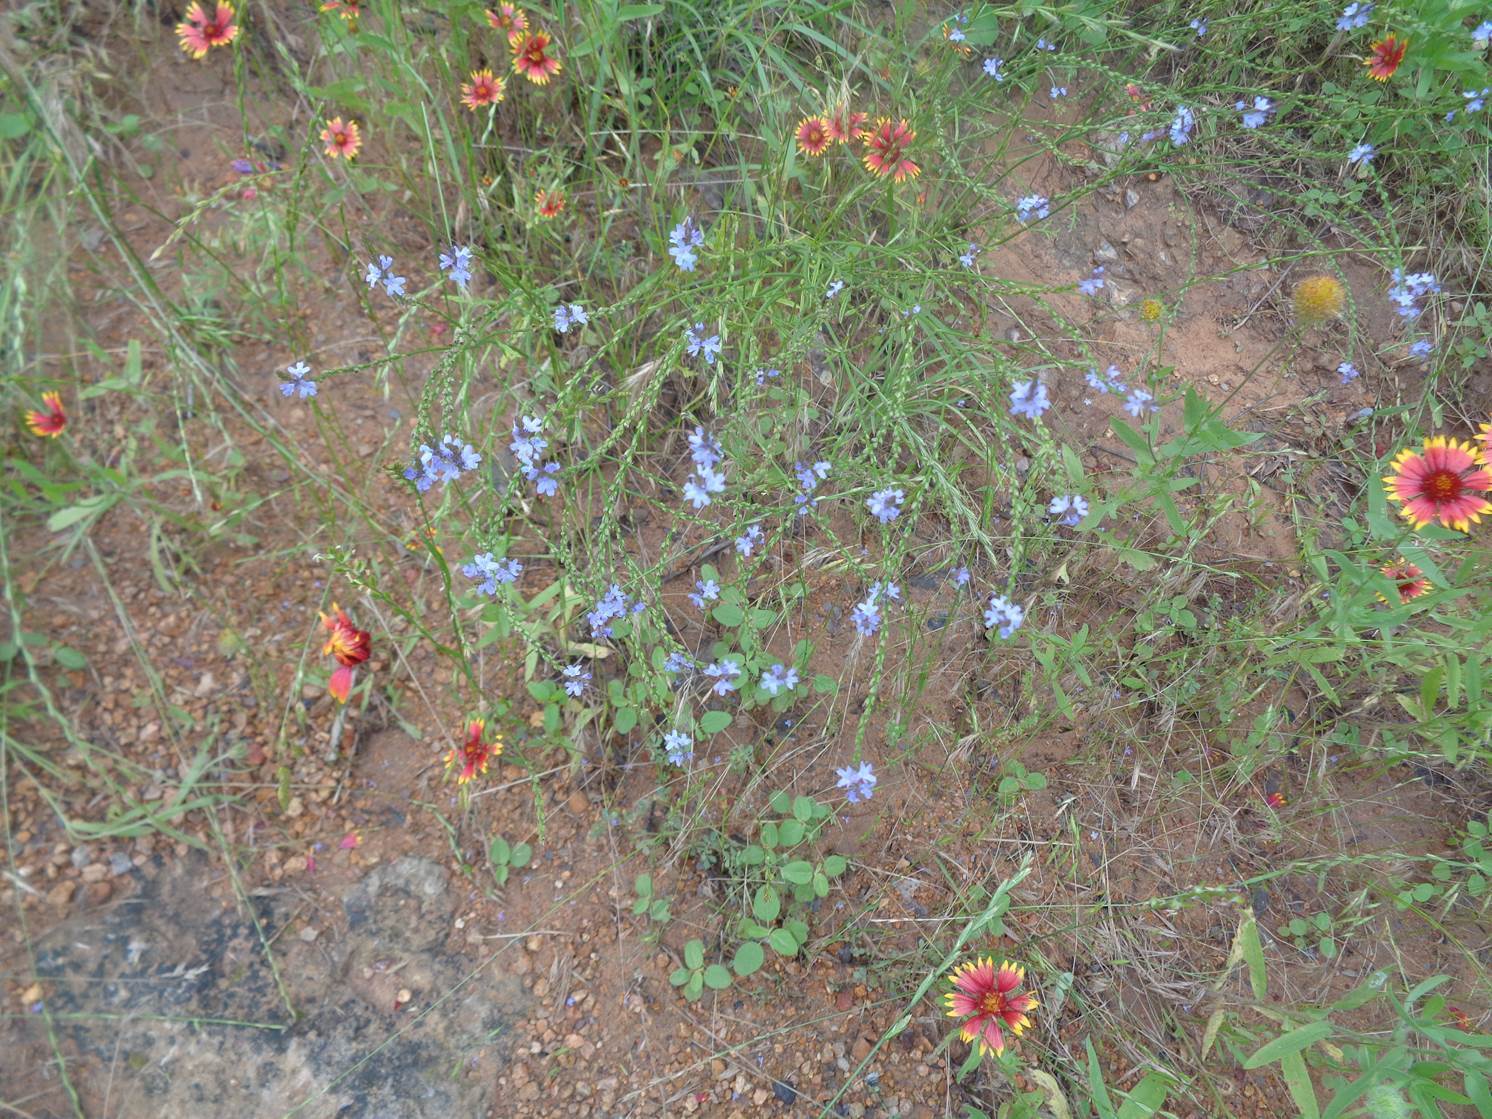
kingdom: Plantae
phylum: Tracheophyta
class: Magnoliopsida
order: Lamiales
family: Verbenaceae
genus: Verbena
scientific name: Verbena halei
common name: Texas vervain
